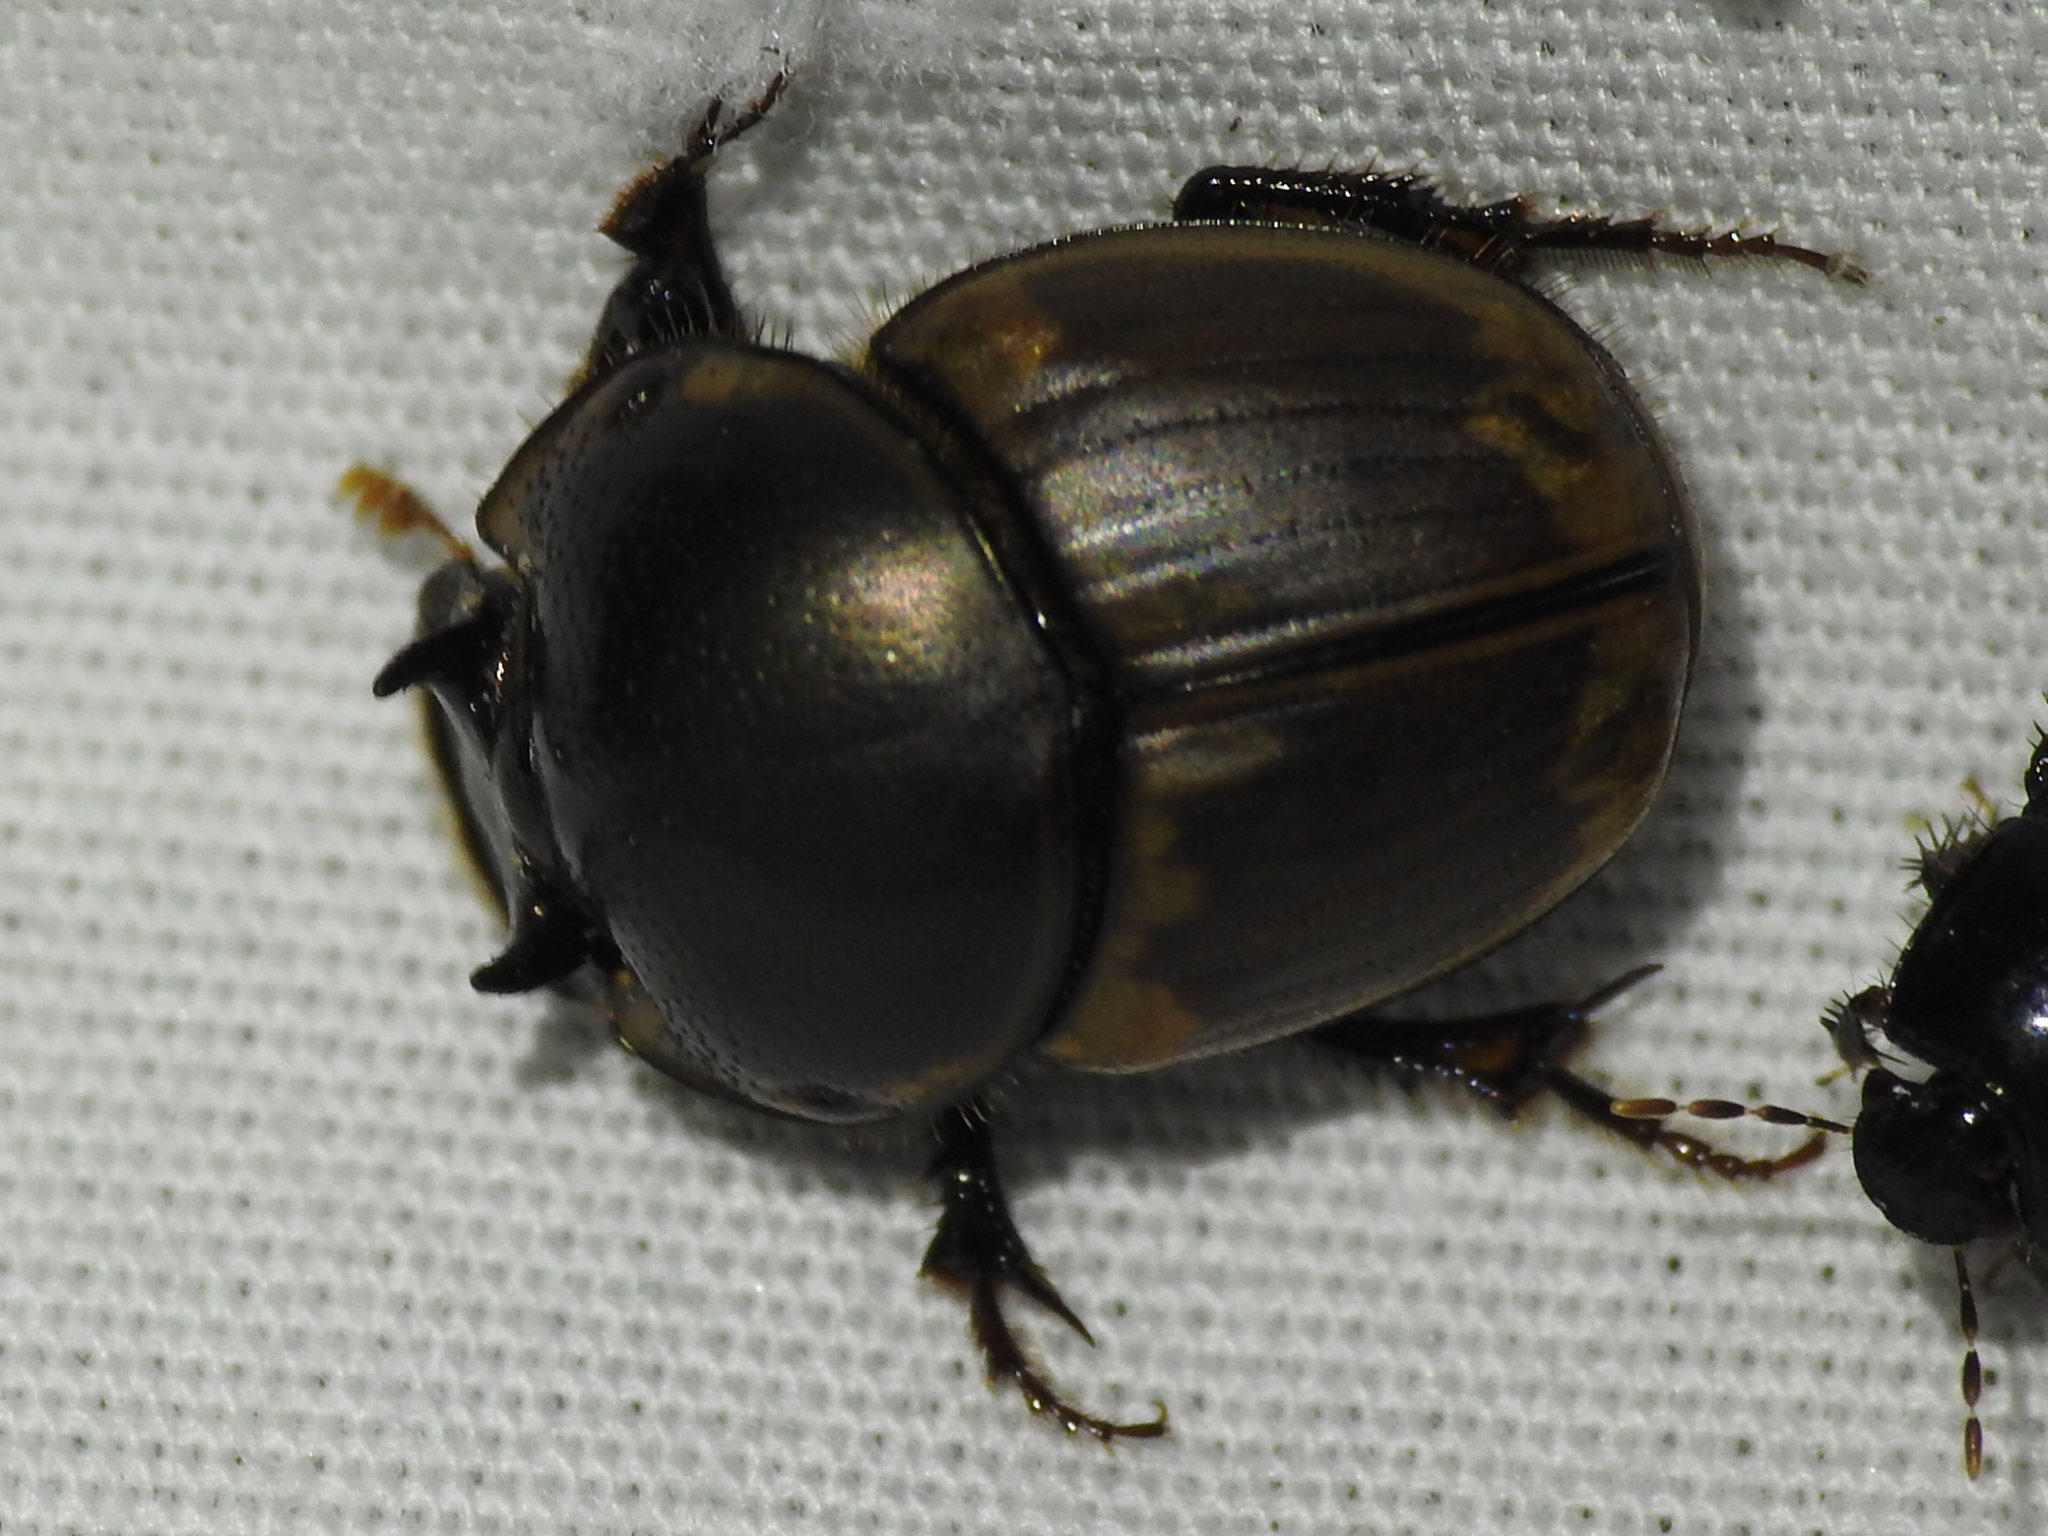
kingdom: Animalia
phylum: Arthropoda
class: Insecta
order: Coleoptera
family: Scarabaeidae
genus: Digitonthophagus
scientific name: Digitonthophagus gazella
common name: Brown dung beetle
